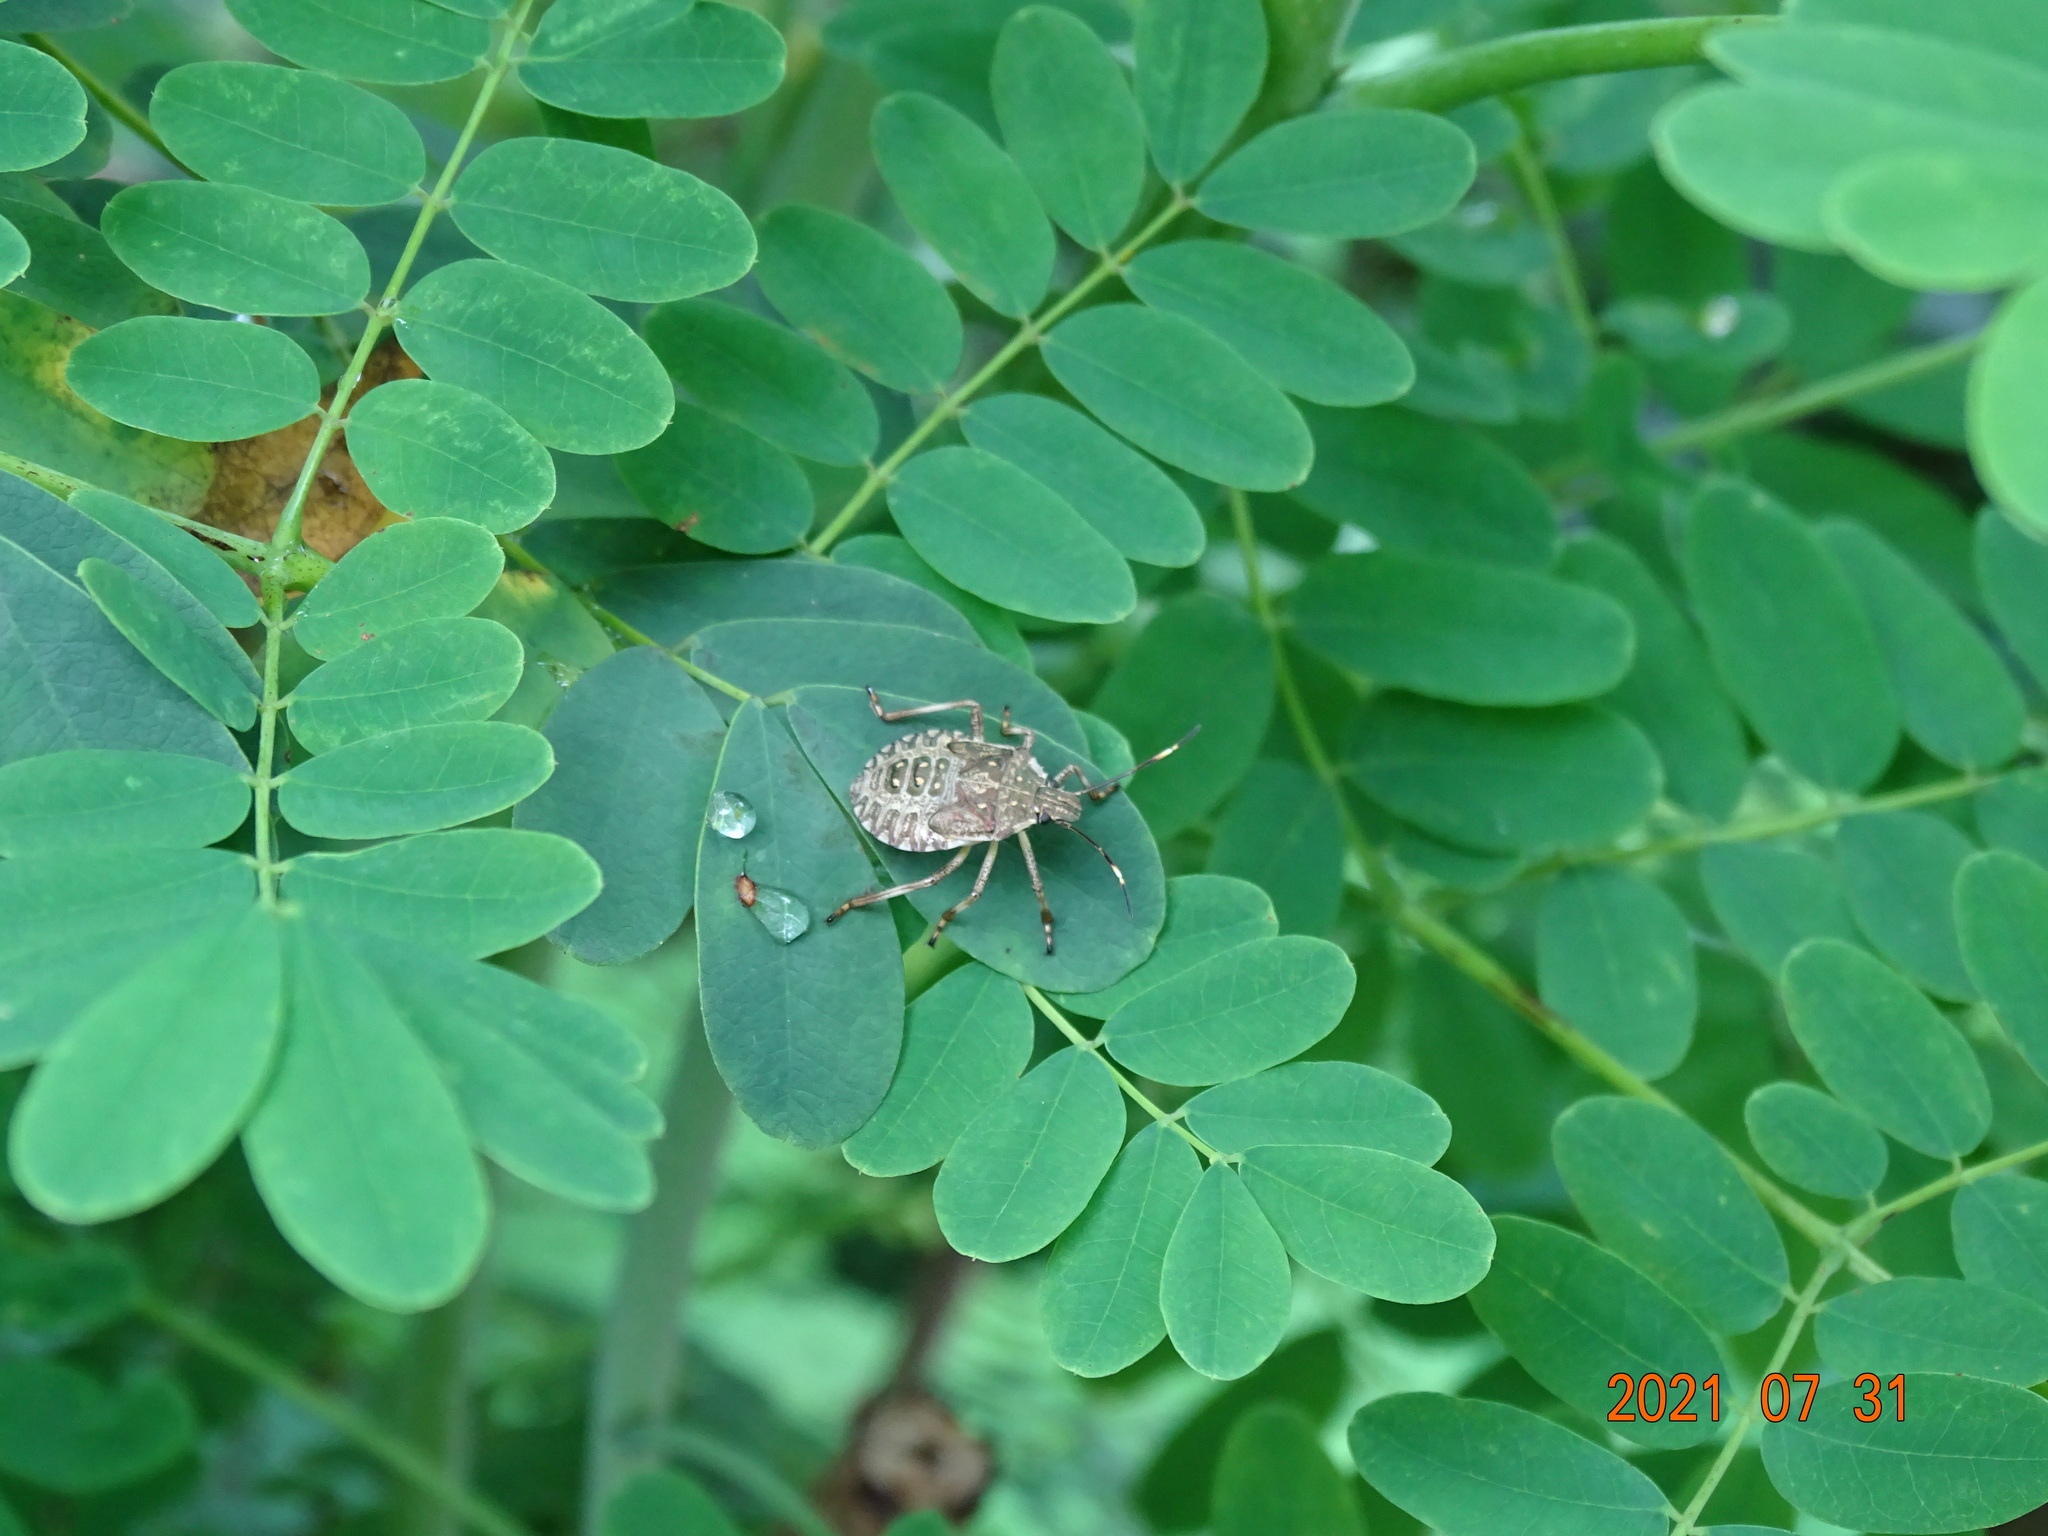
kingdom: Animalia
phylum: Arthropoda
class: Insecta
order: Hemiptera
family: Pentatomidae
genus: Halyomorpha
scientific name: Halyomorpha halys
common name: Brown marmorated stink bug
